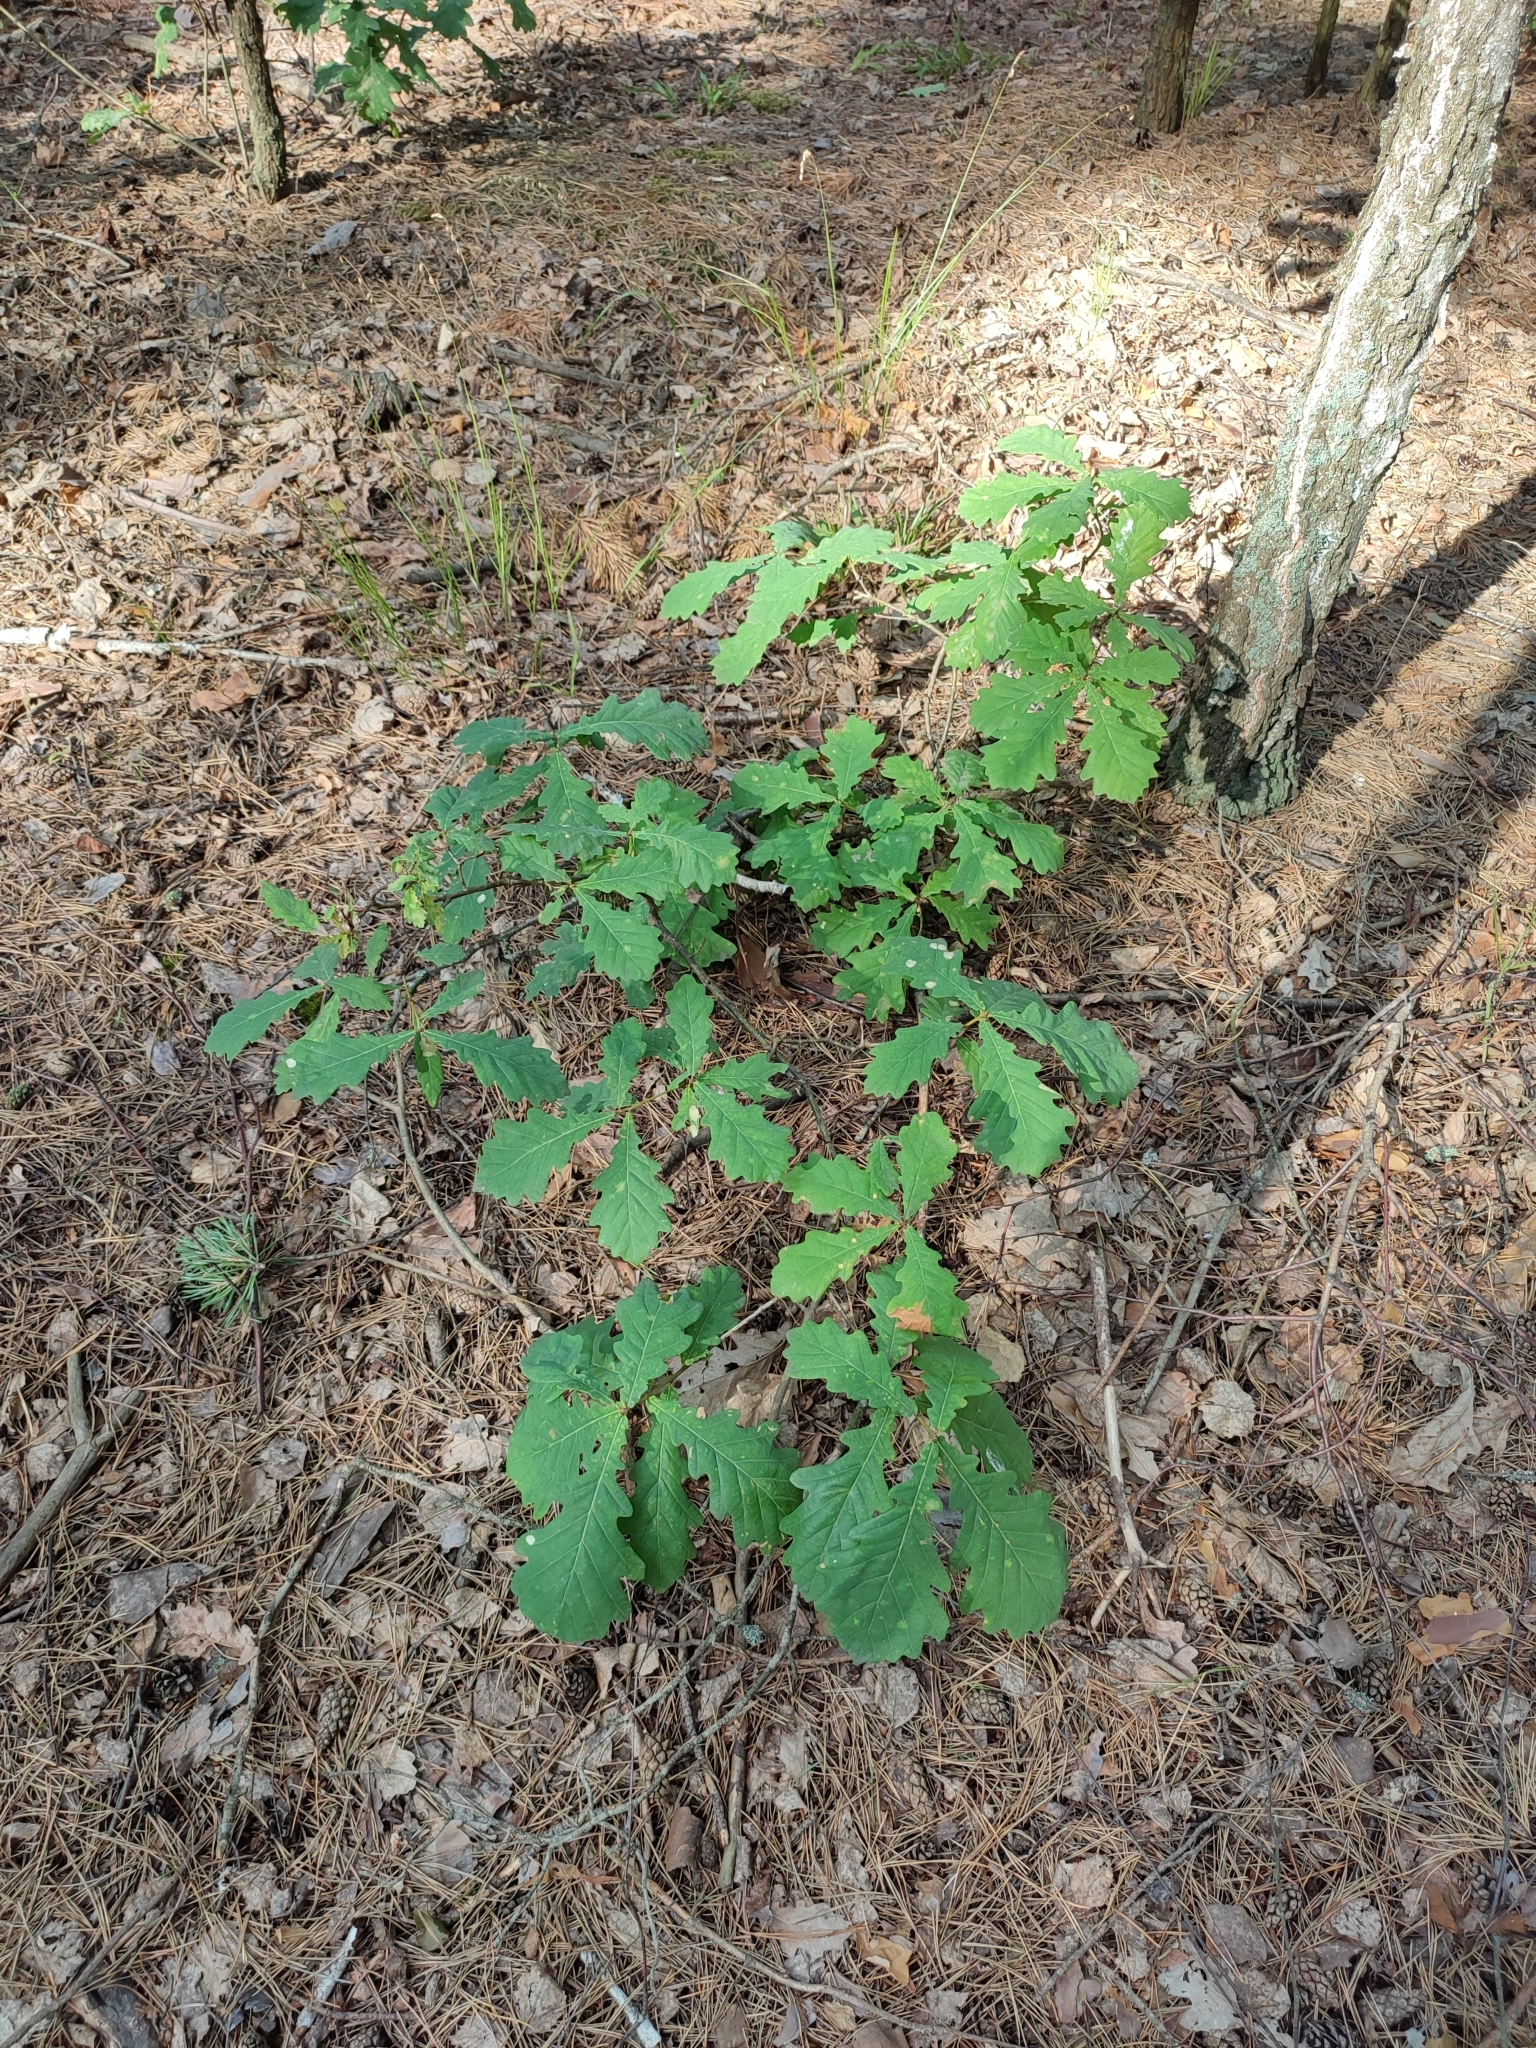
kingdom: Plantae
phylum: Tracheophyta
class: Magnoliopsida
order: Fagales
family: Fagaceae
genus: Quercus
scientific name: Quercus robur
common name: Pedunculate oak
